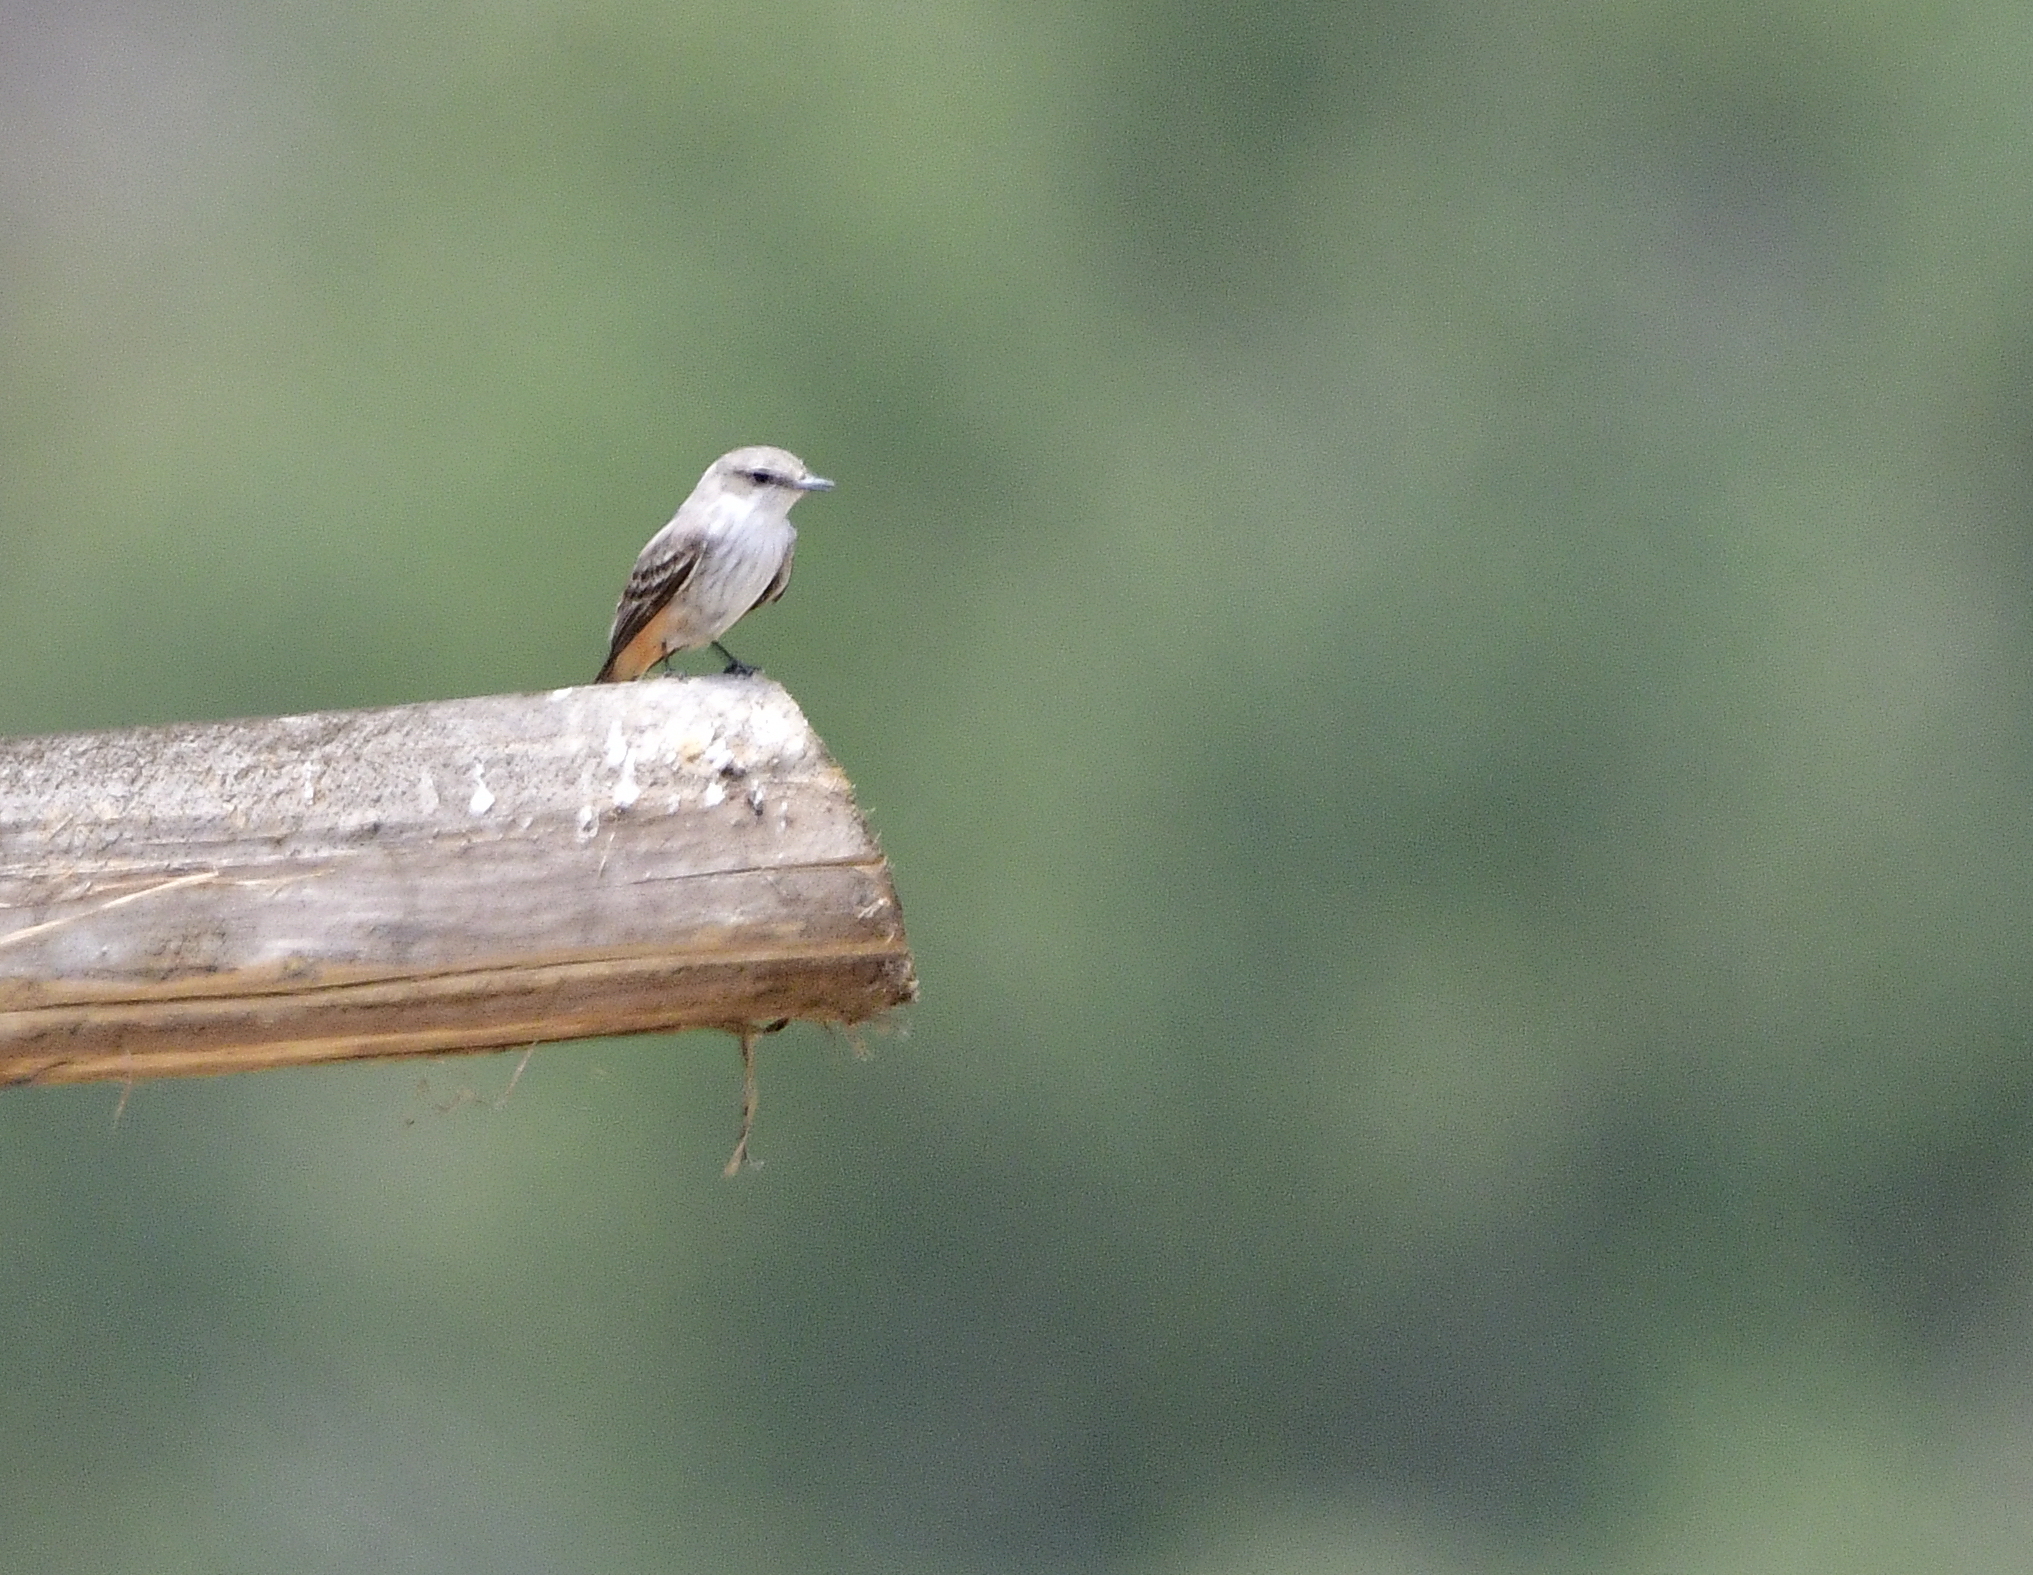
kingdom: Animalia
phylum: Chordata
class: Aves
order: Passeriformes
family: Tyrannidae
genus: Pyrocephalus
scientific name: Pyrocephalus rubinus
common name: Vermilion flycatcher
